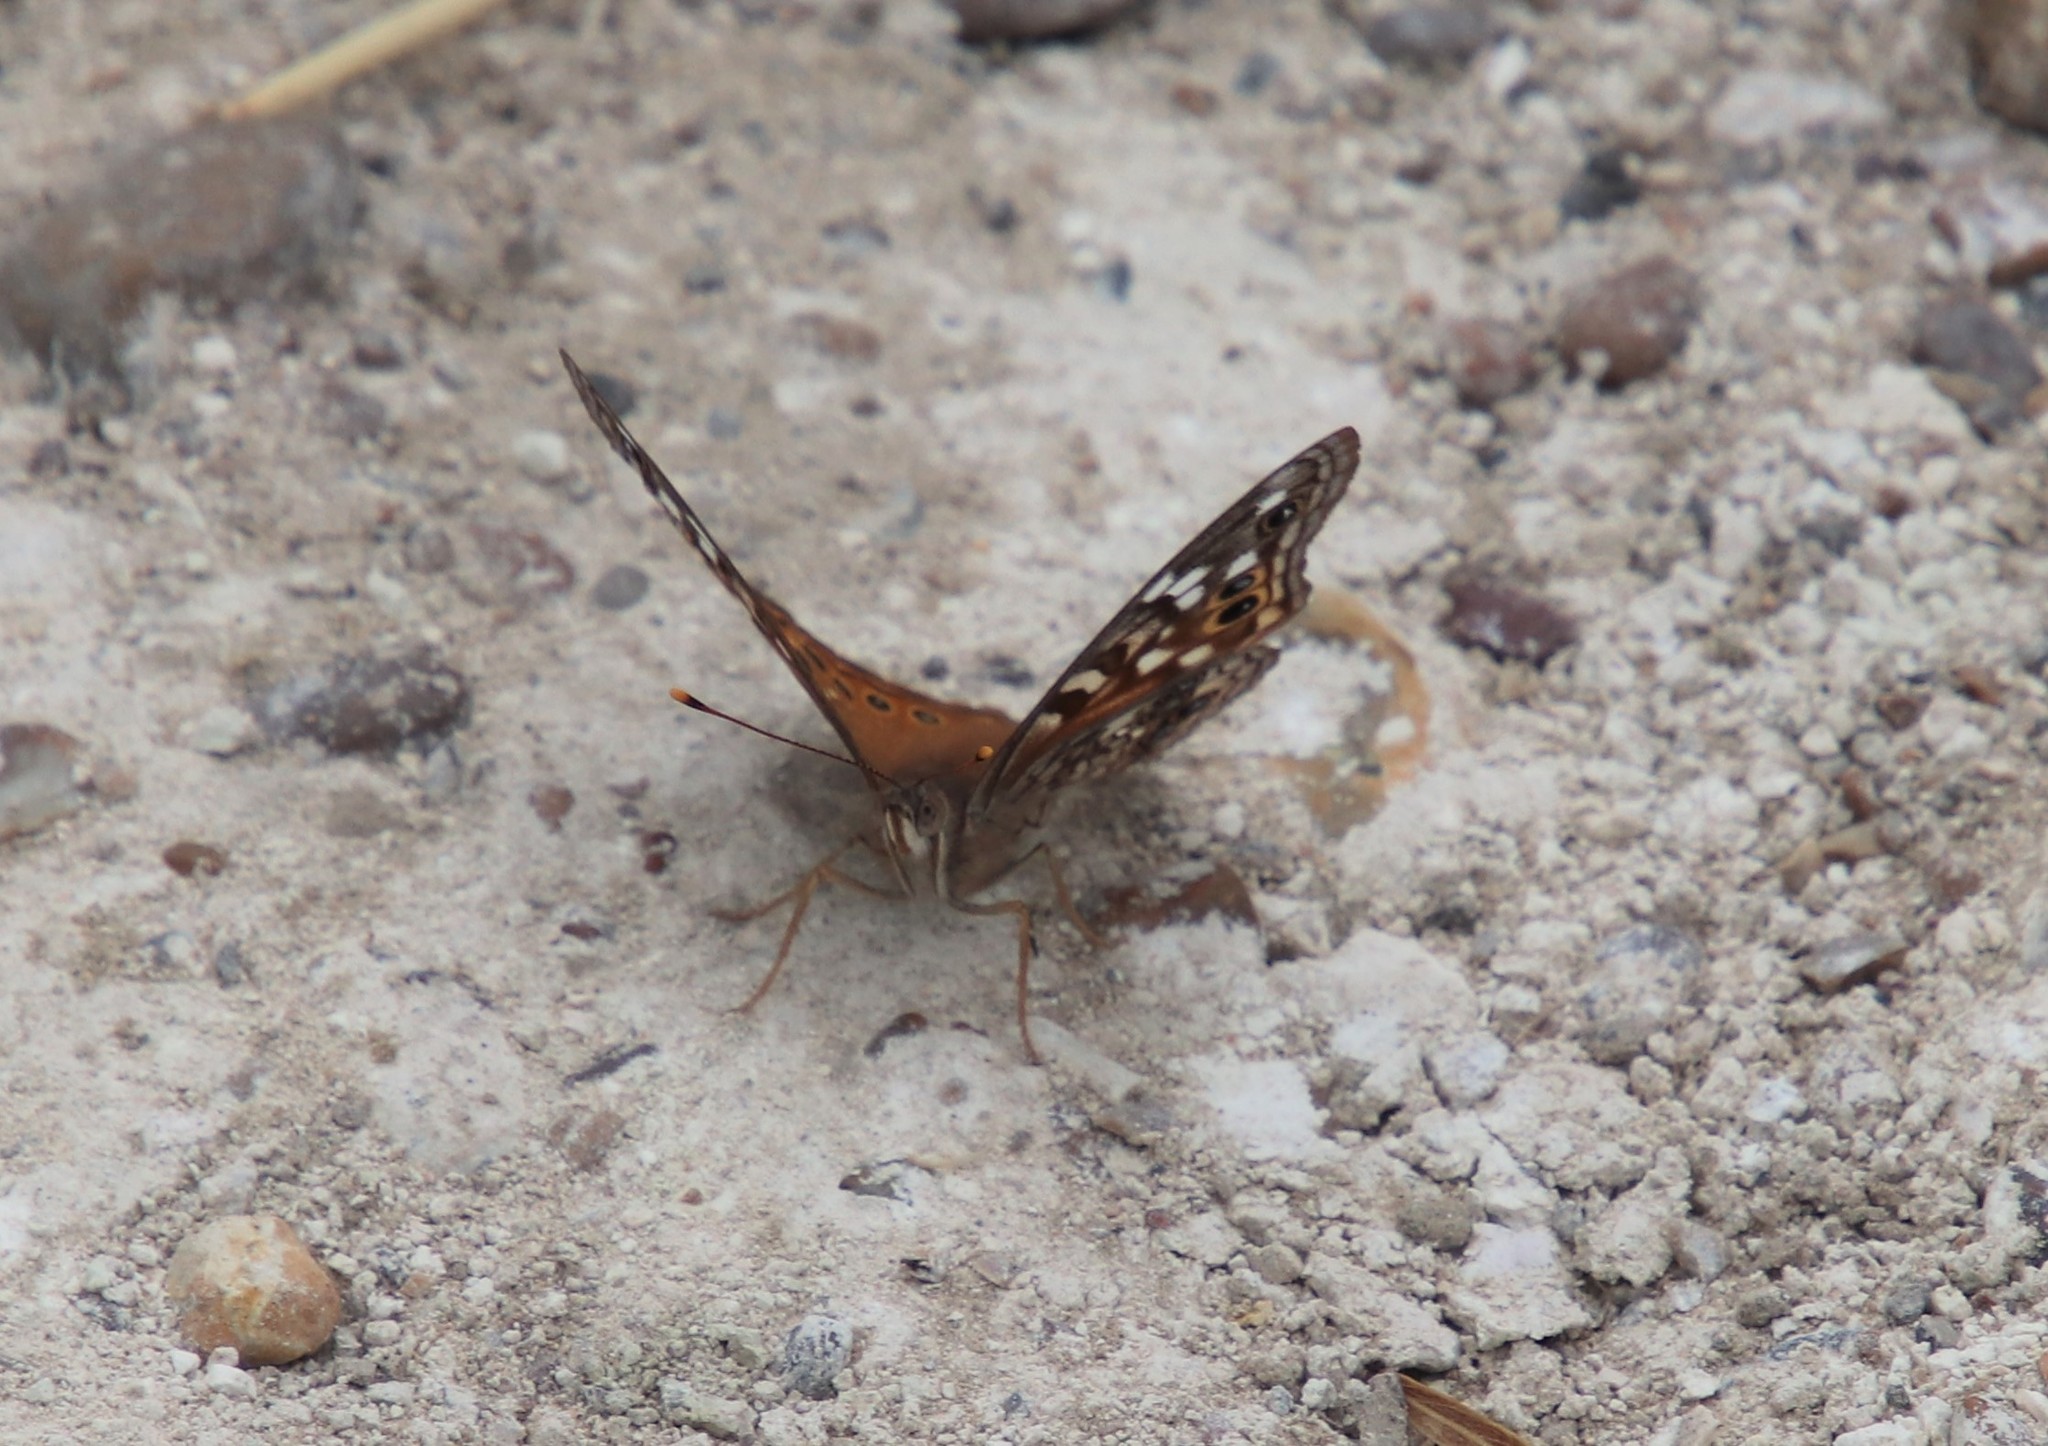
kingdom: Animalia
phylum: Arthropoda
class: Insecta
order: Lepidoptera
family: Nymphalidae
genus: Asterocampa
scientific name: Asterocampa leilia
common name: Empress leilia
